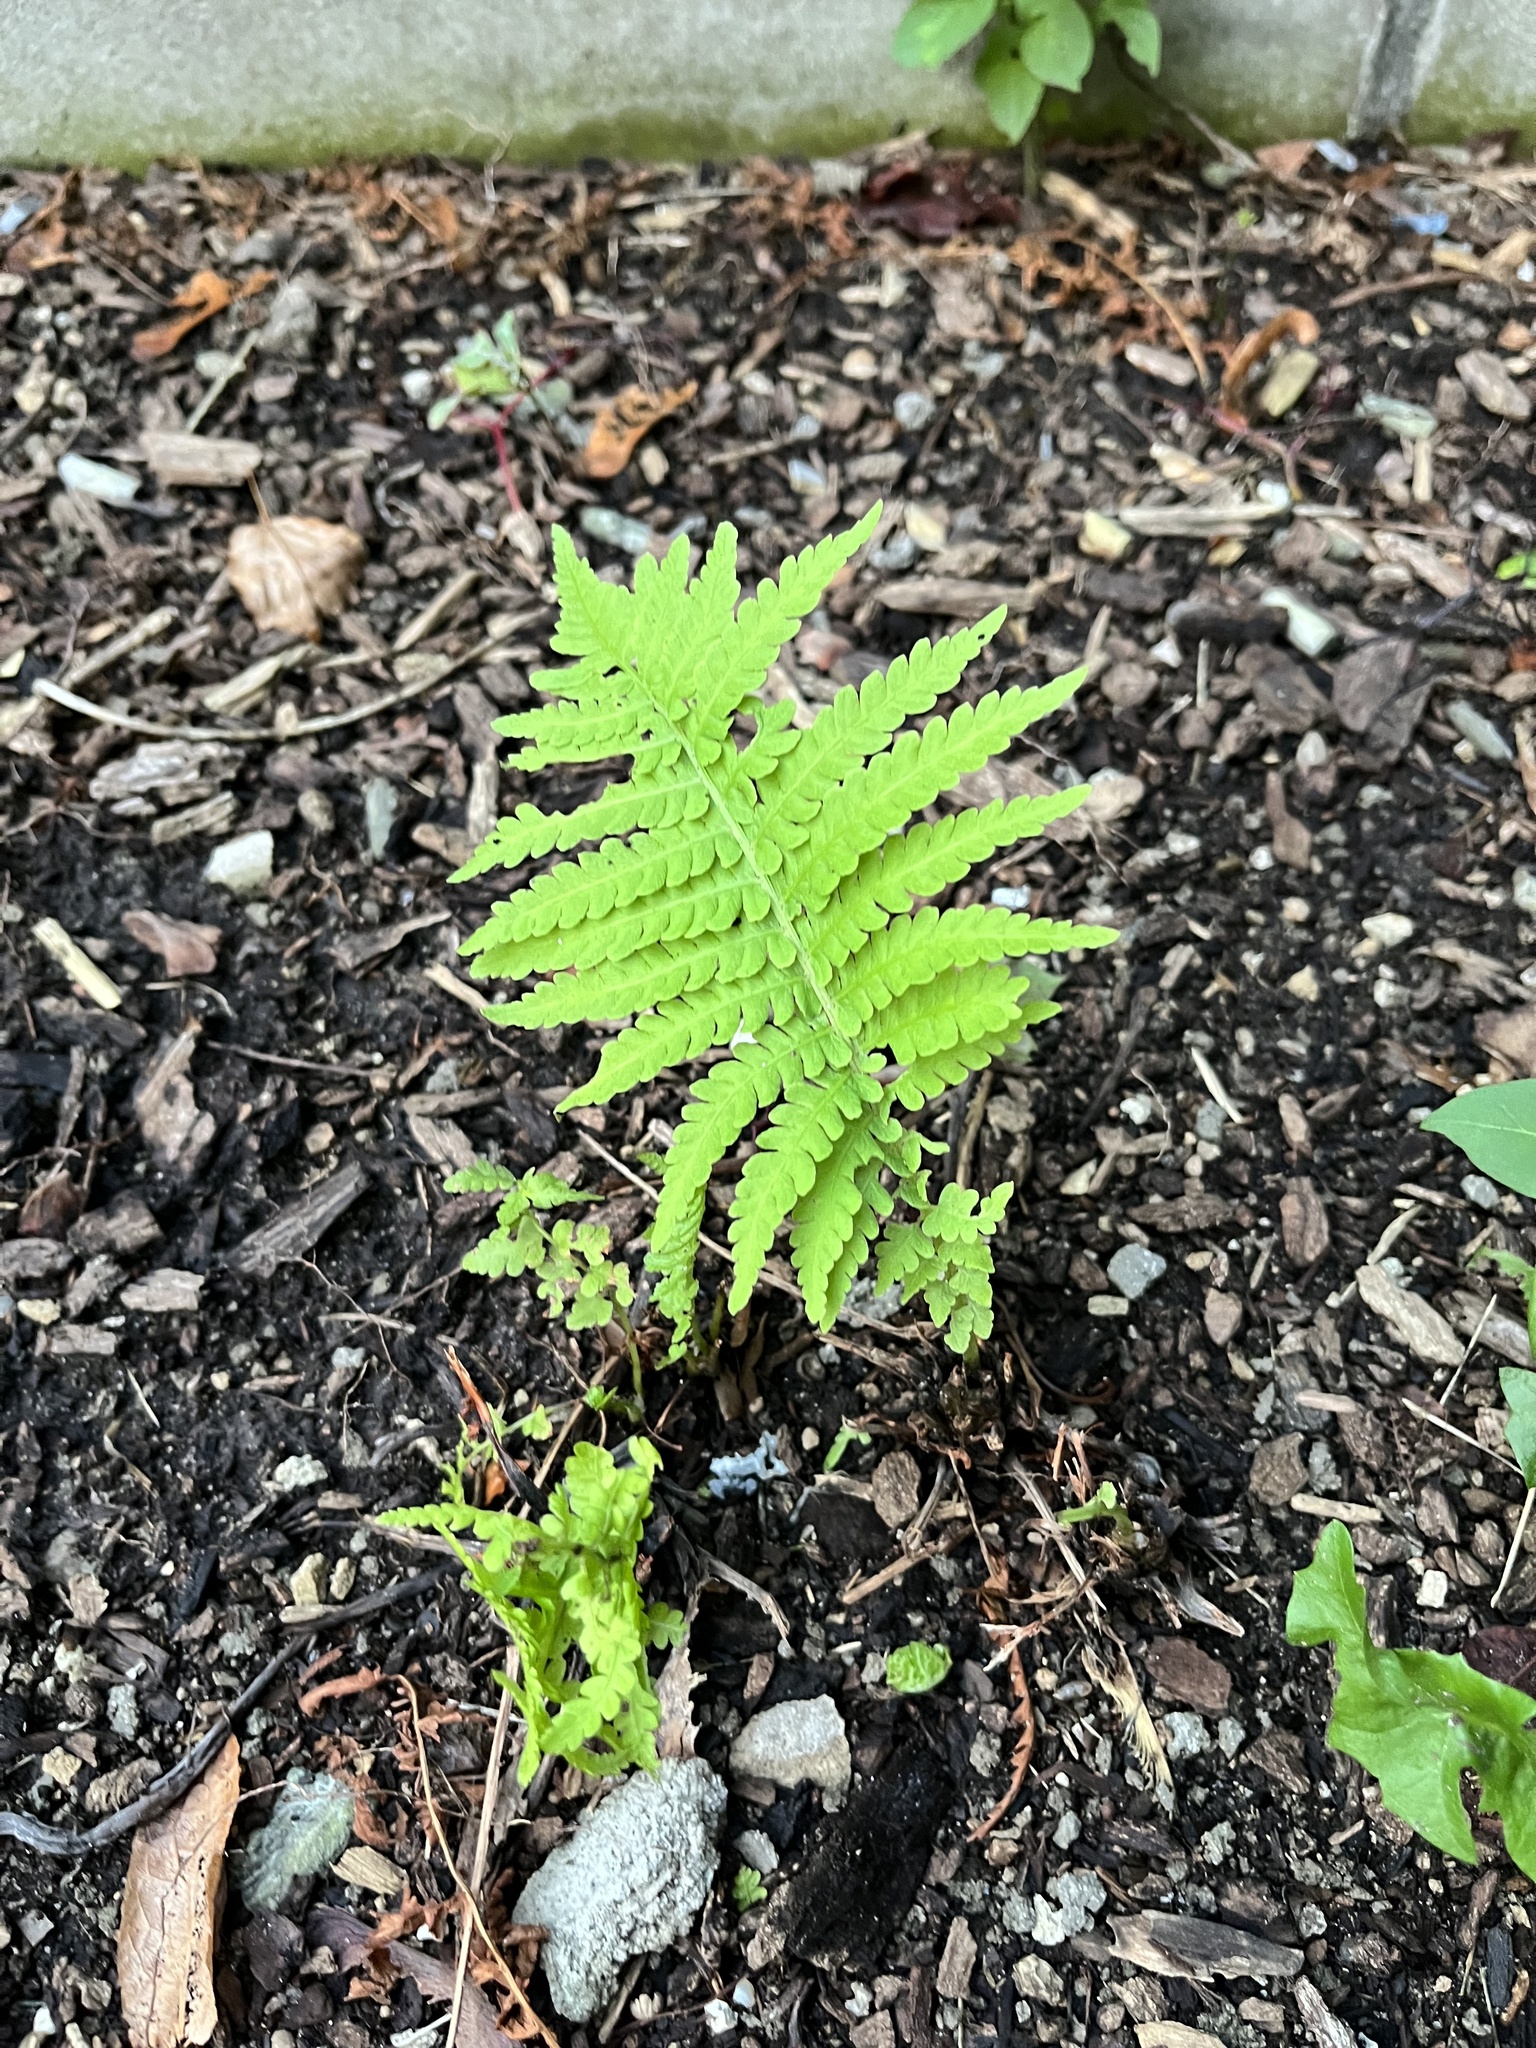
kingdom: Plantae
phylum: Tracheophyta
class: Polypodiopsida
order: Polypodiales
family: Onocleaceae
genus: Matteuccia
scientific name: Matteuccia struthiopteris
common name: Ostrich fern
